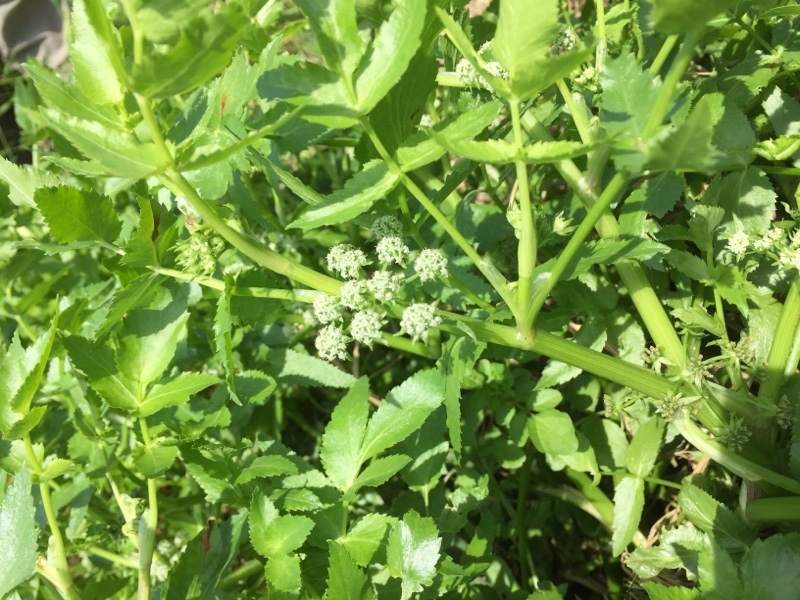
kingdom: Plantae
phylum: Tracheophyta
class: Magnoliopsida
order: Apiales
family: Apiaceae
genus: Helosciadium
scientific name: Helosciadium nodiflorum
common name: Fool's-watercress
